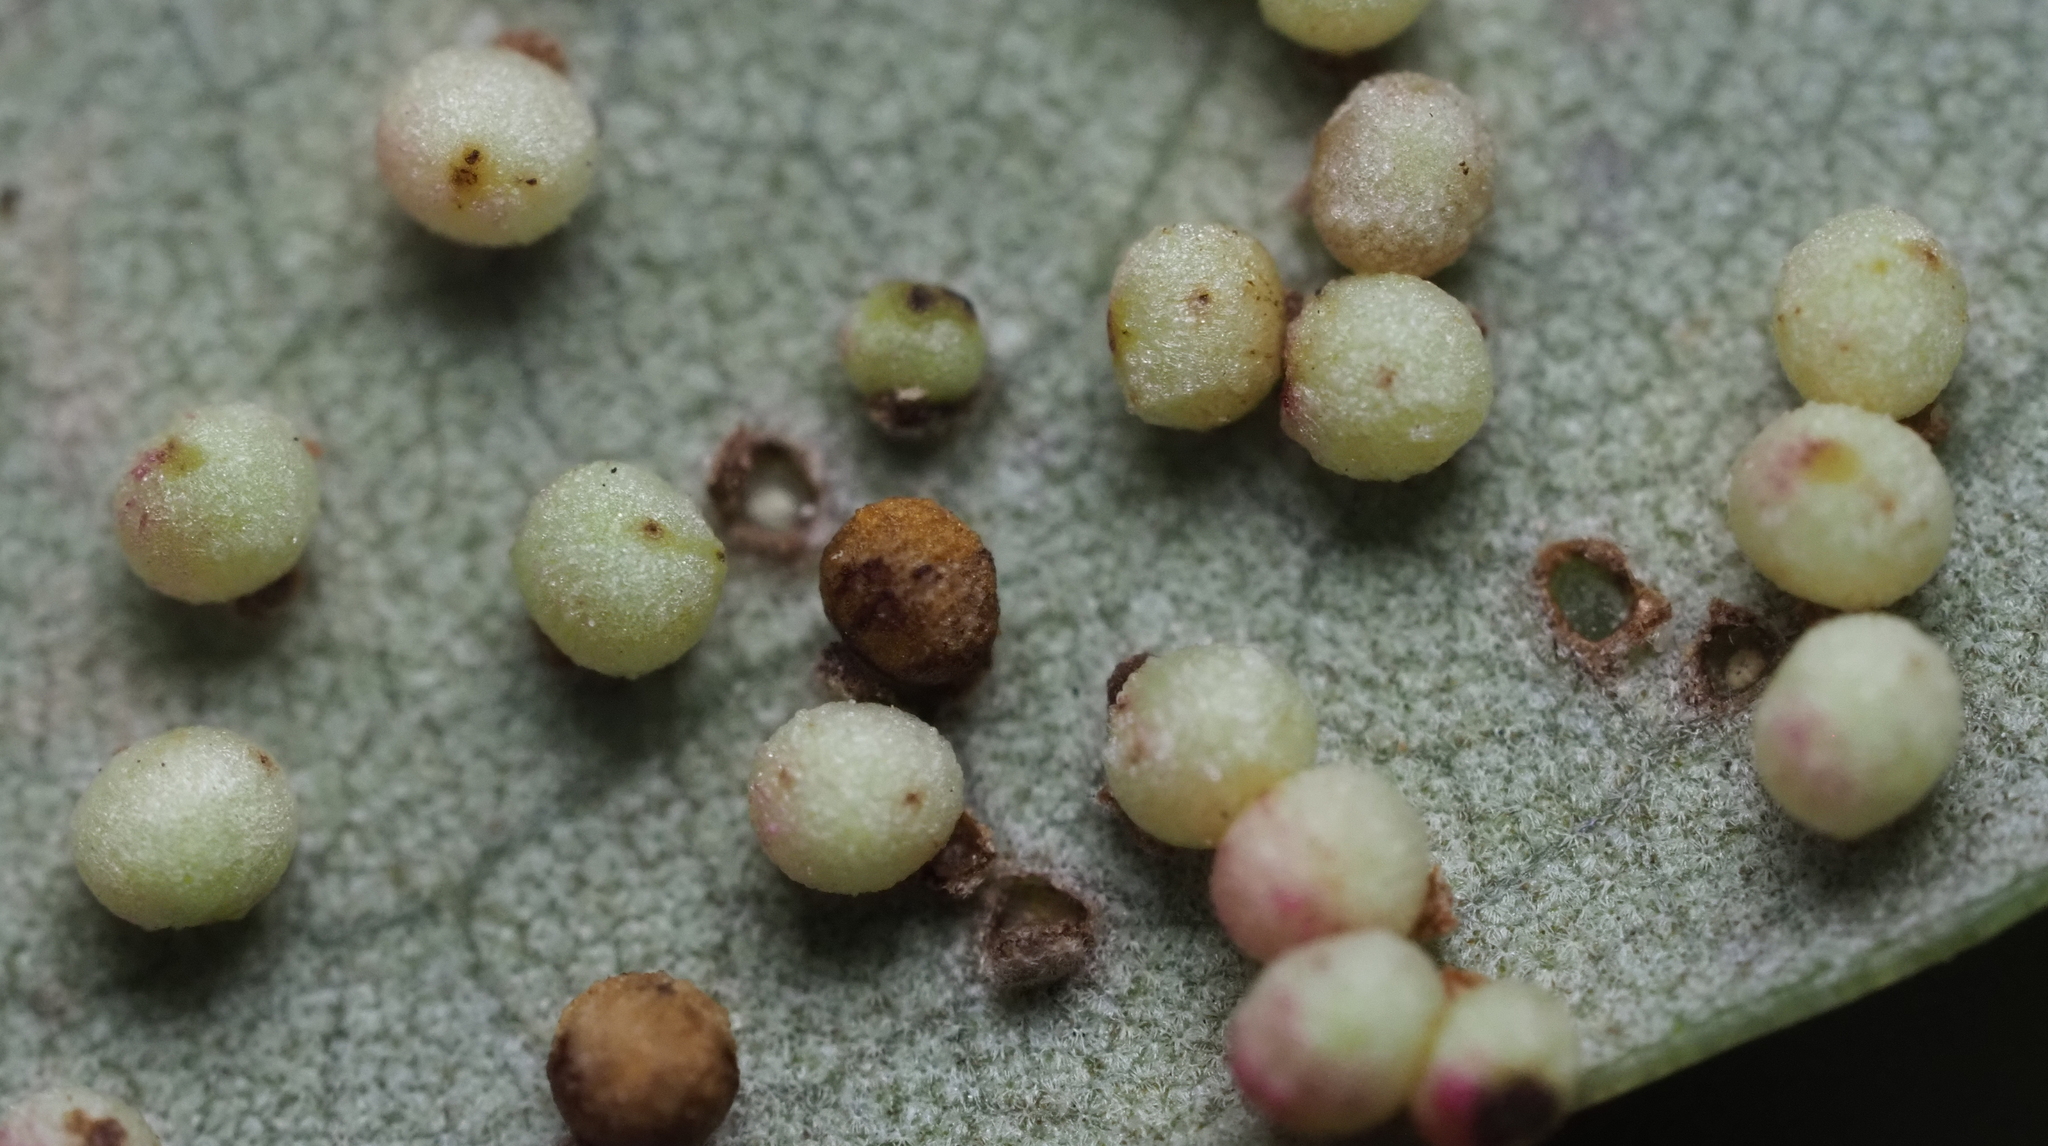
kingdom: Animalia
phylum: Arthropoda
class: Insecta
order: Hymenoptera
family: Cynipidae
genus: Neuroterus
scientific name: Neuroterus saltarius
